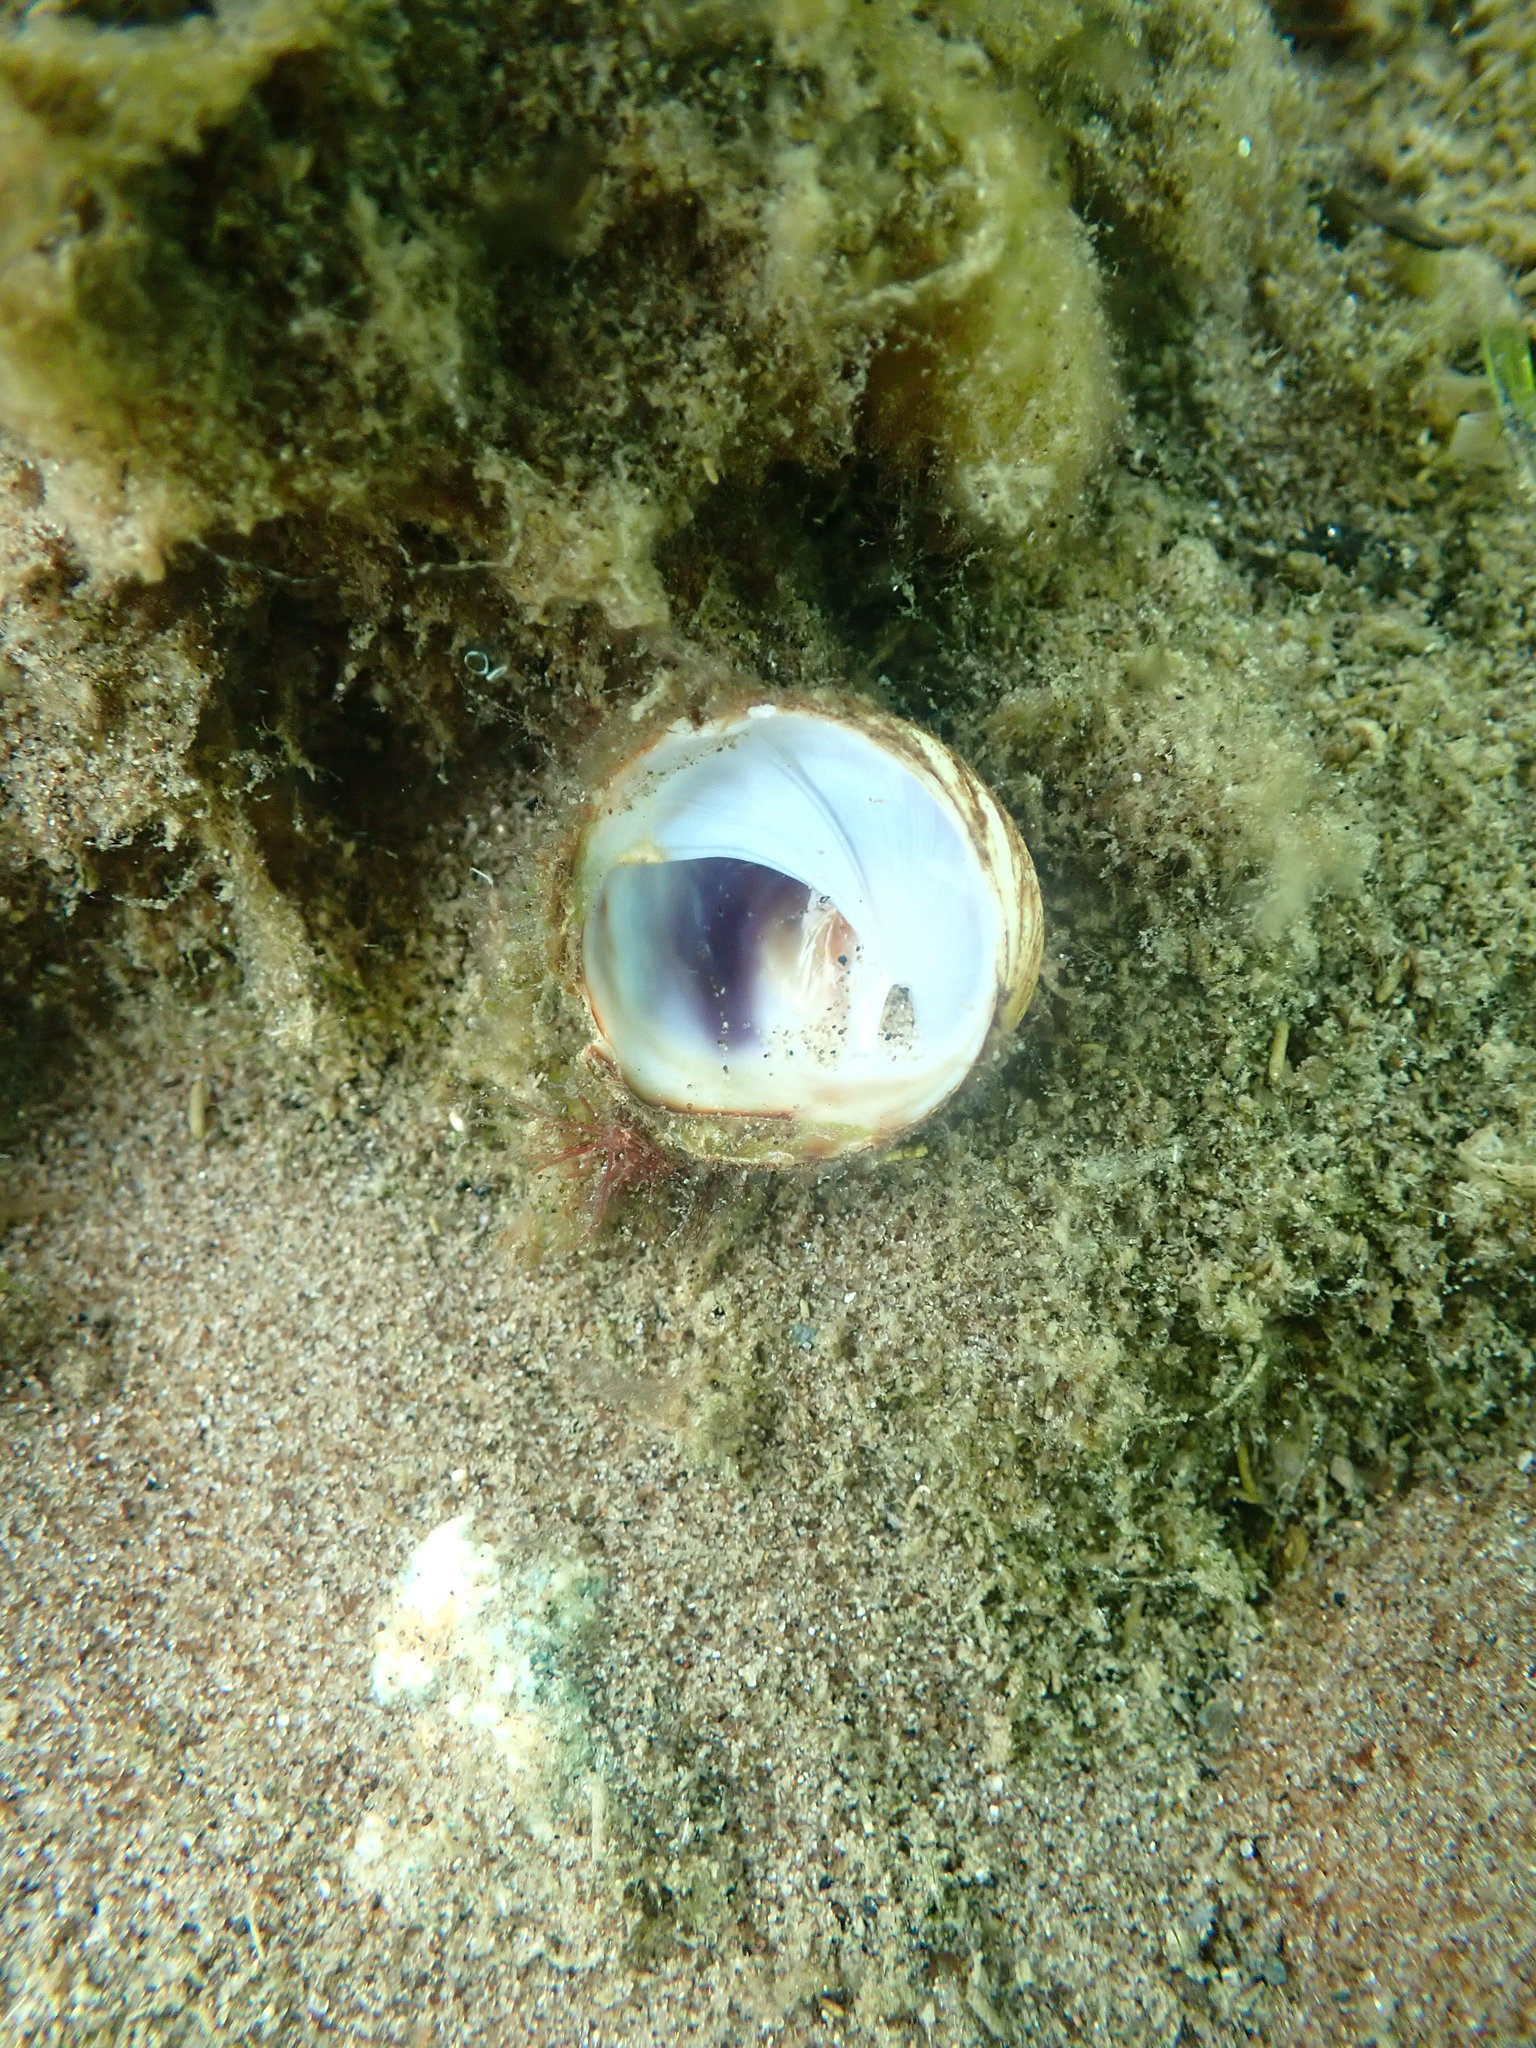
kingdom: Animalia
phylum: Mollusca
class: Gastropoda
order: Littorinimorpha
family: Calyptraeidae
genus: Sigapatella
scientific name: Sigapatella novaezelandiae
